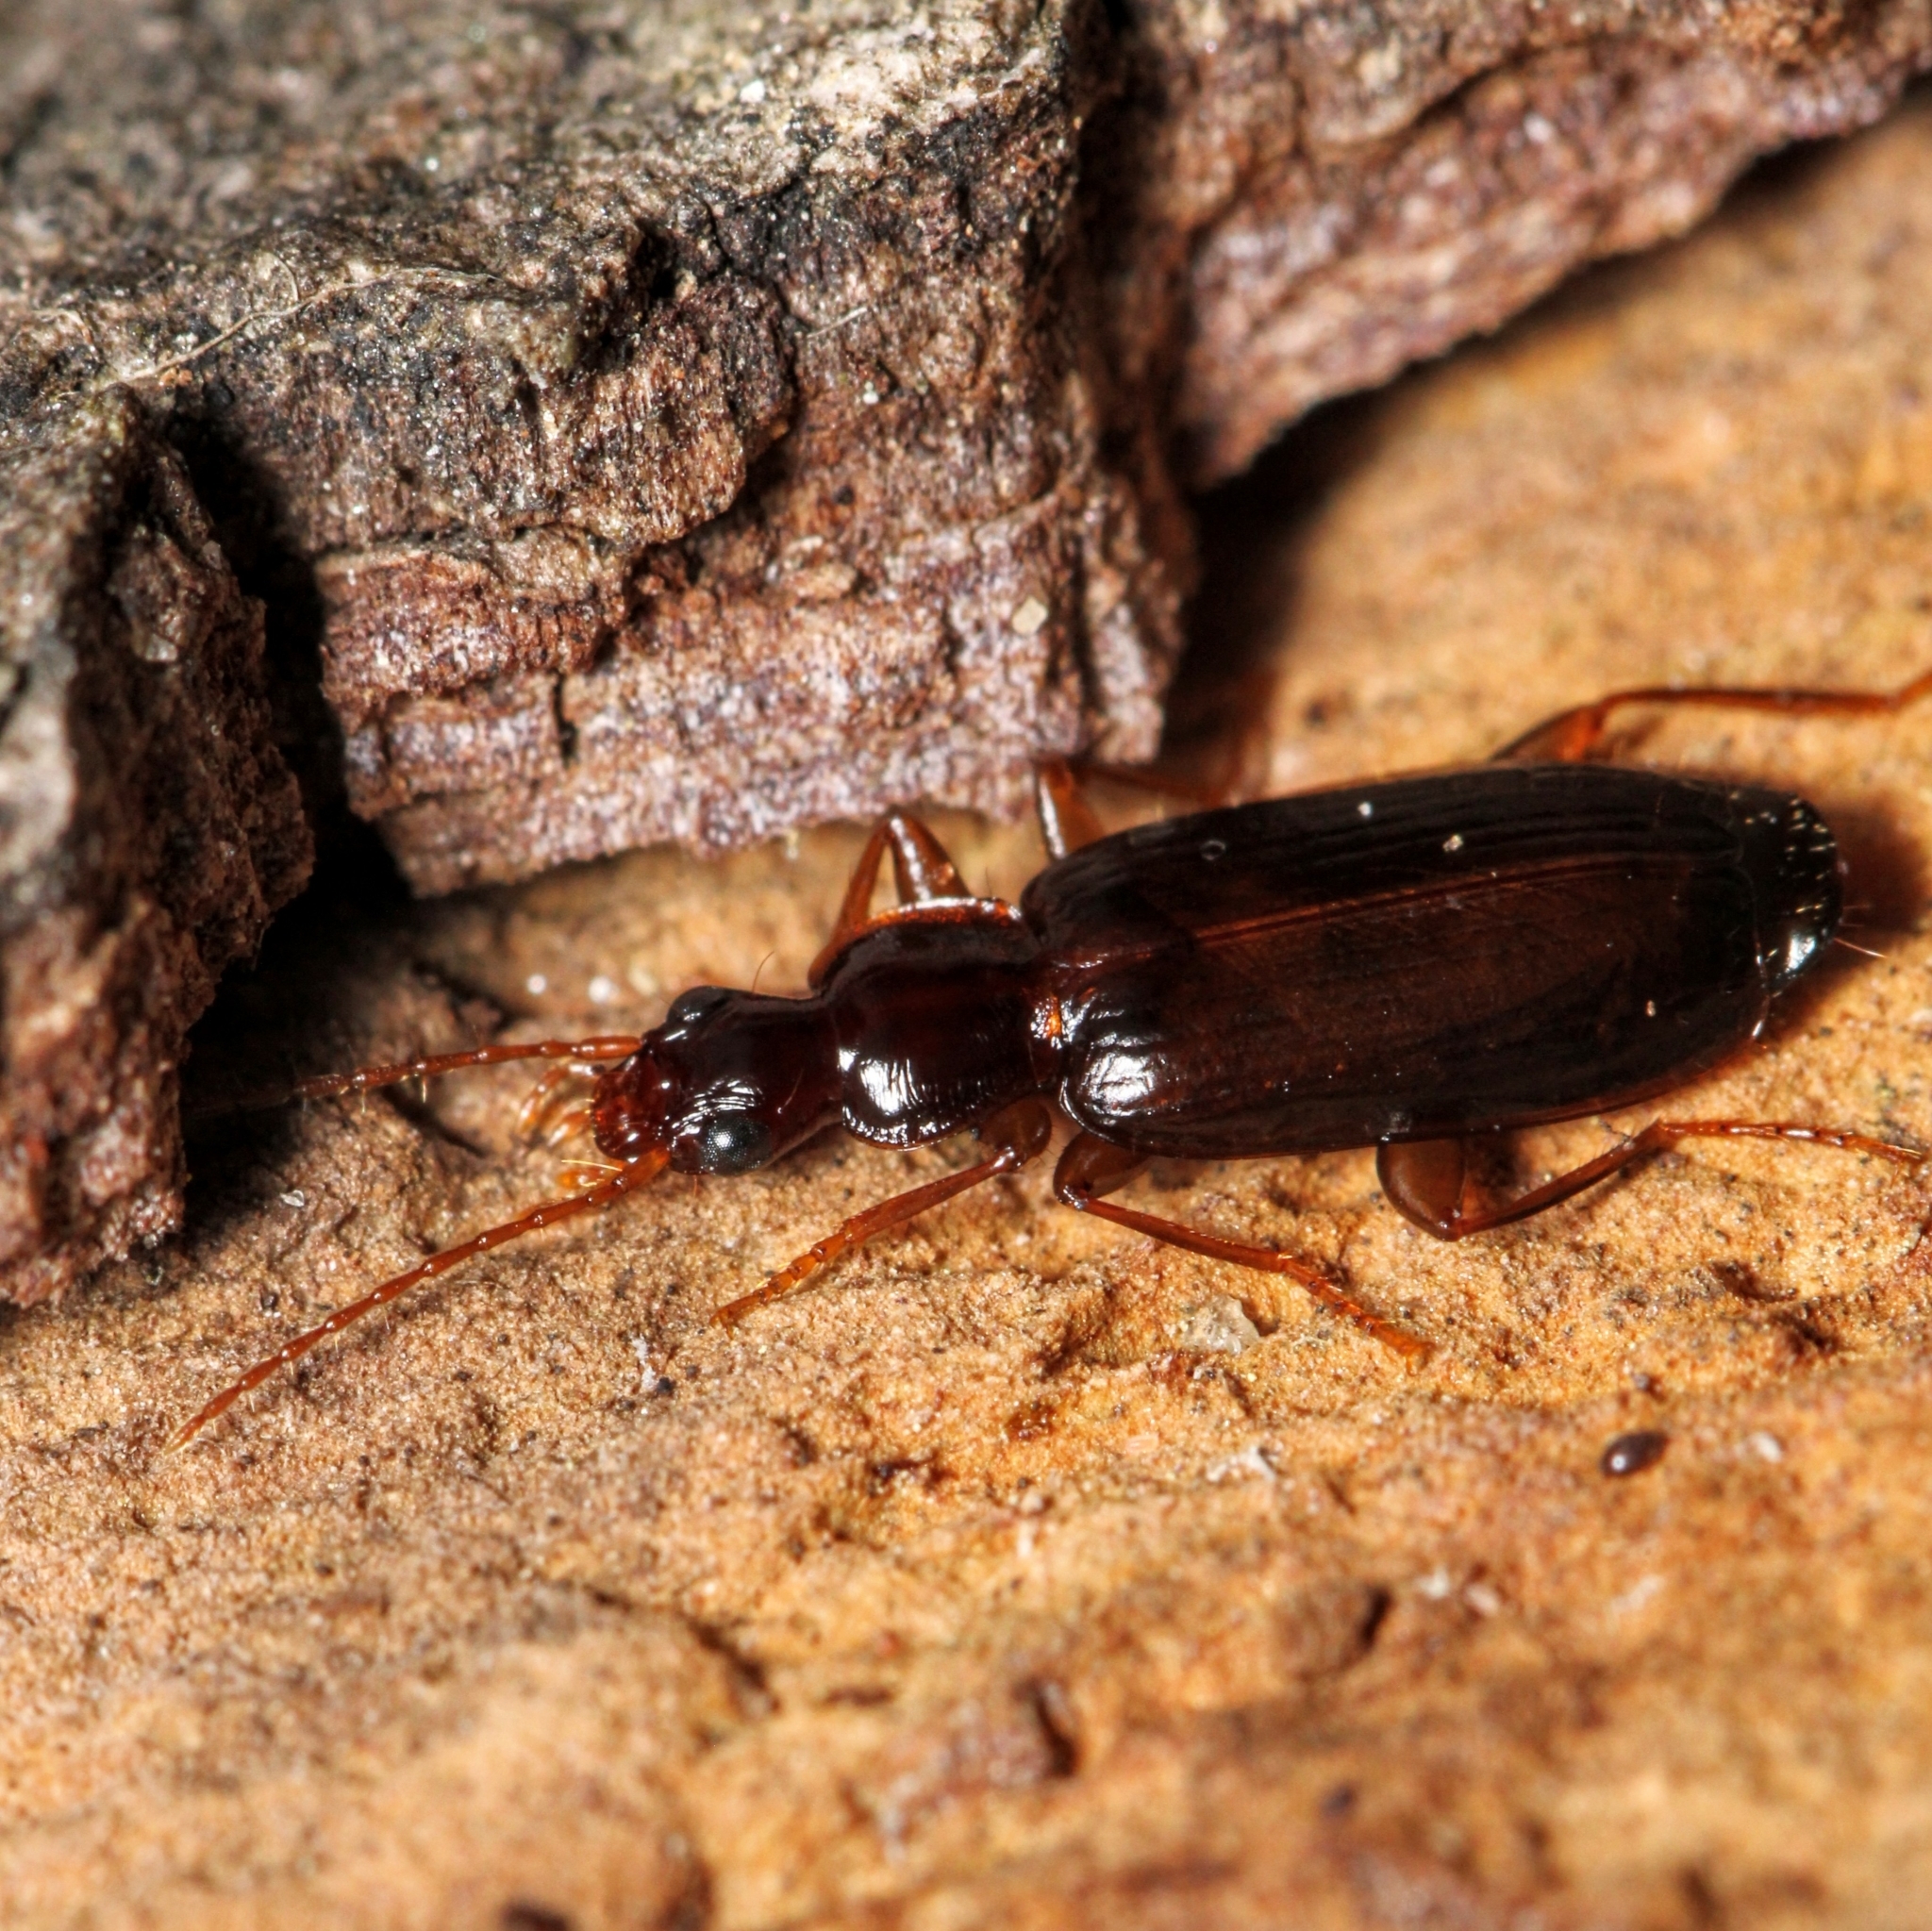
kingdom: Animalia
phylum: Arthropoda
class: Insecta
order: Coleoptera
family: Carabidae
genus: Dromius
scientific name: Dromius piceus
